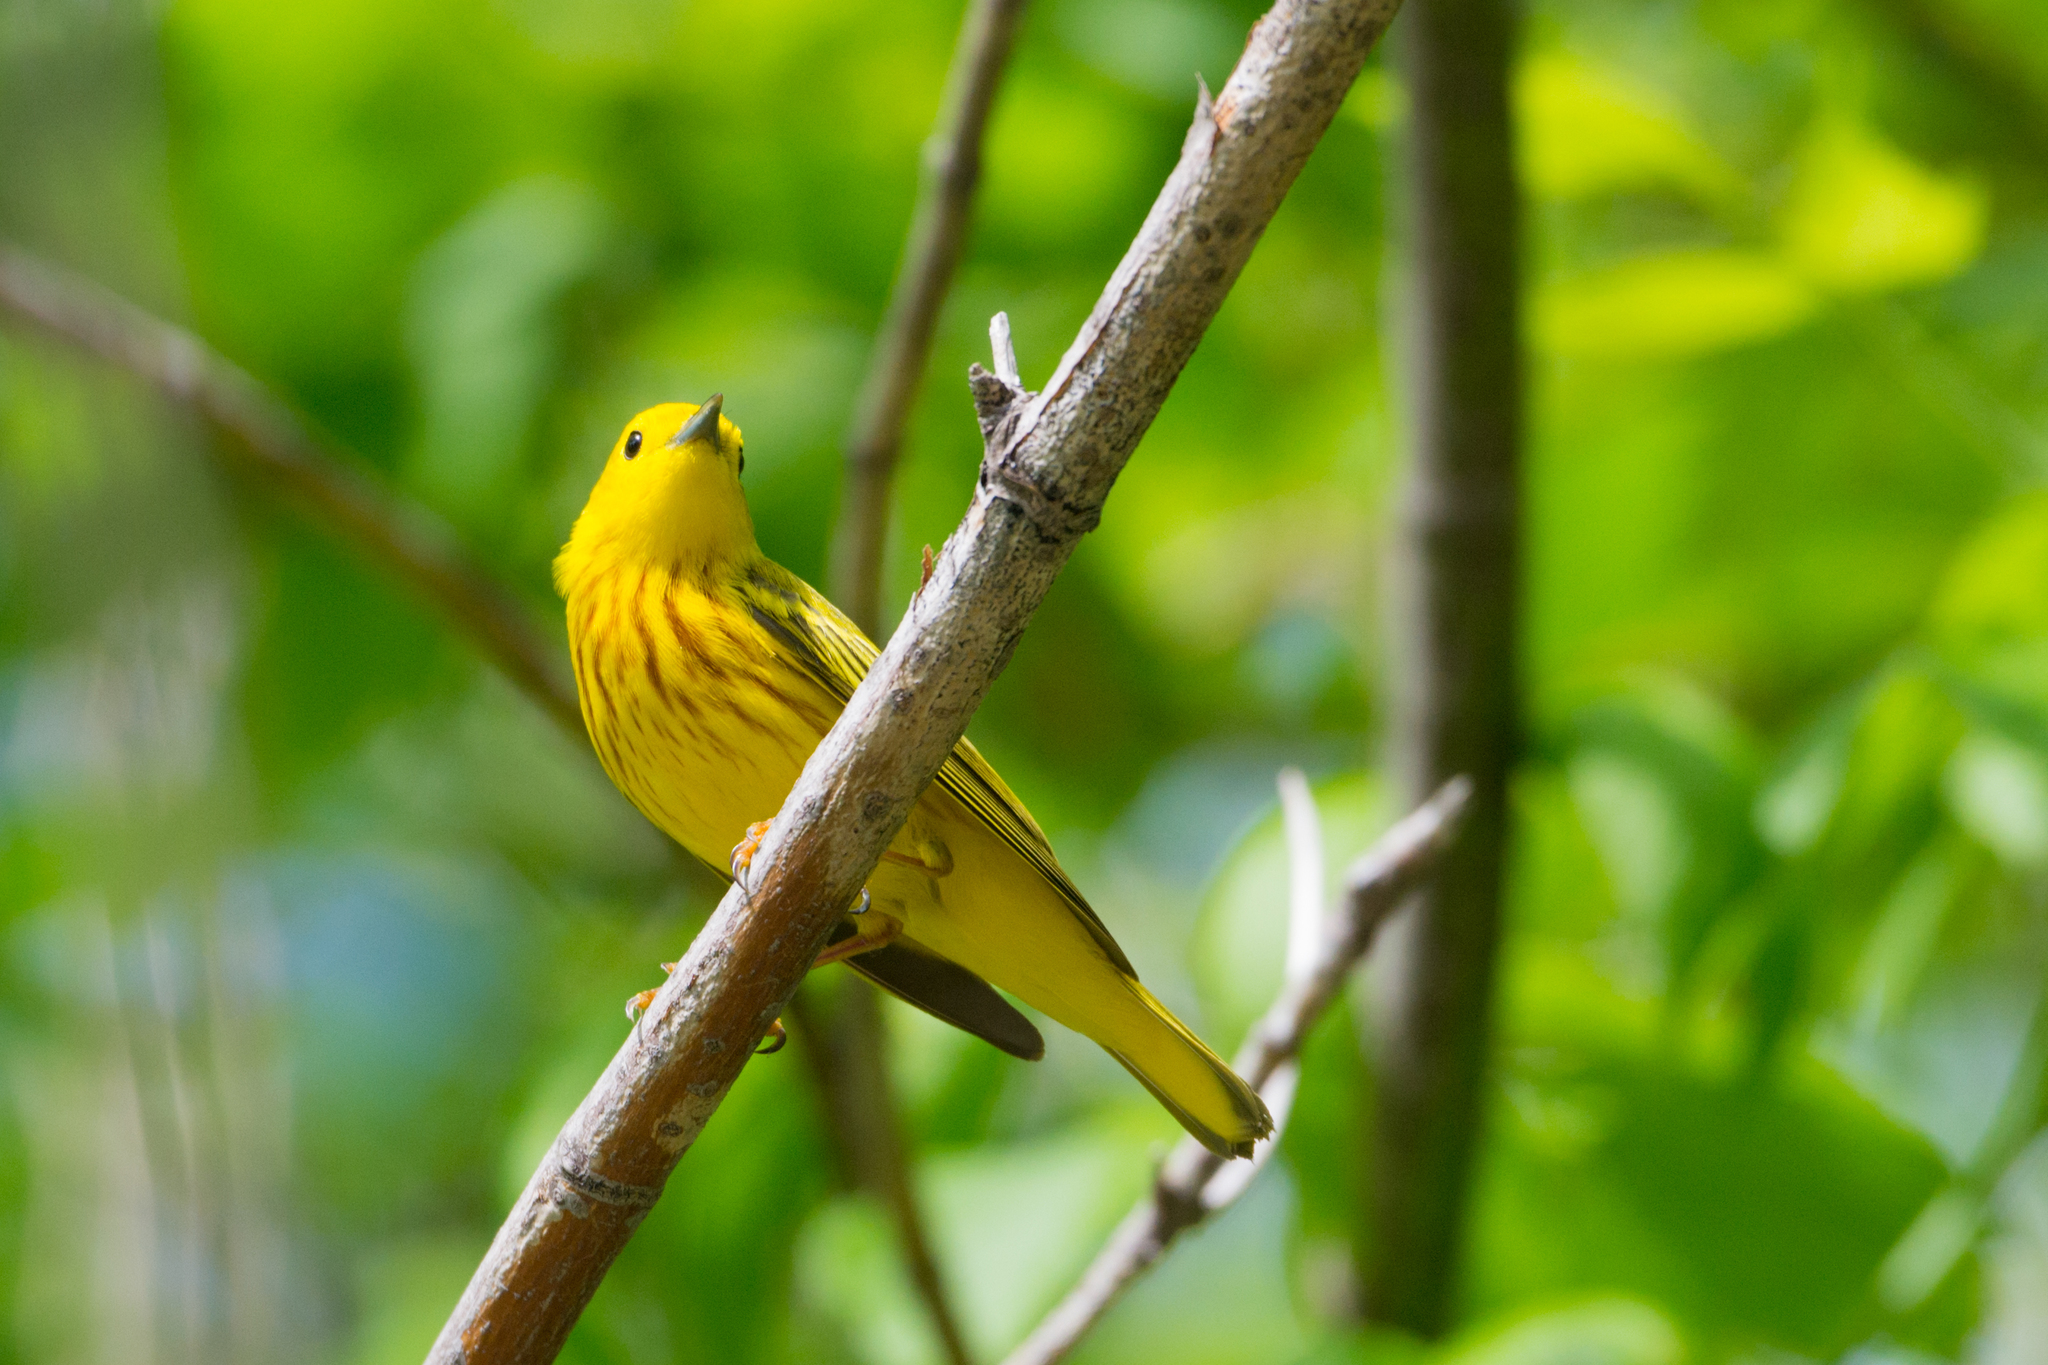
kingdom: Animalia
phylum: Chordata
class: Aves
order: Passeriformes
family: Parulidae
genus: Setophaga
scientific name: Setophaga petechia
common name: Yellow warbler
